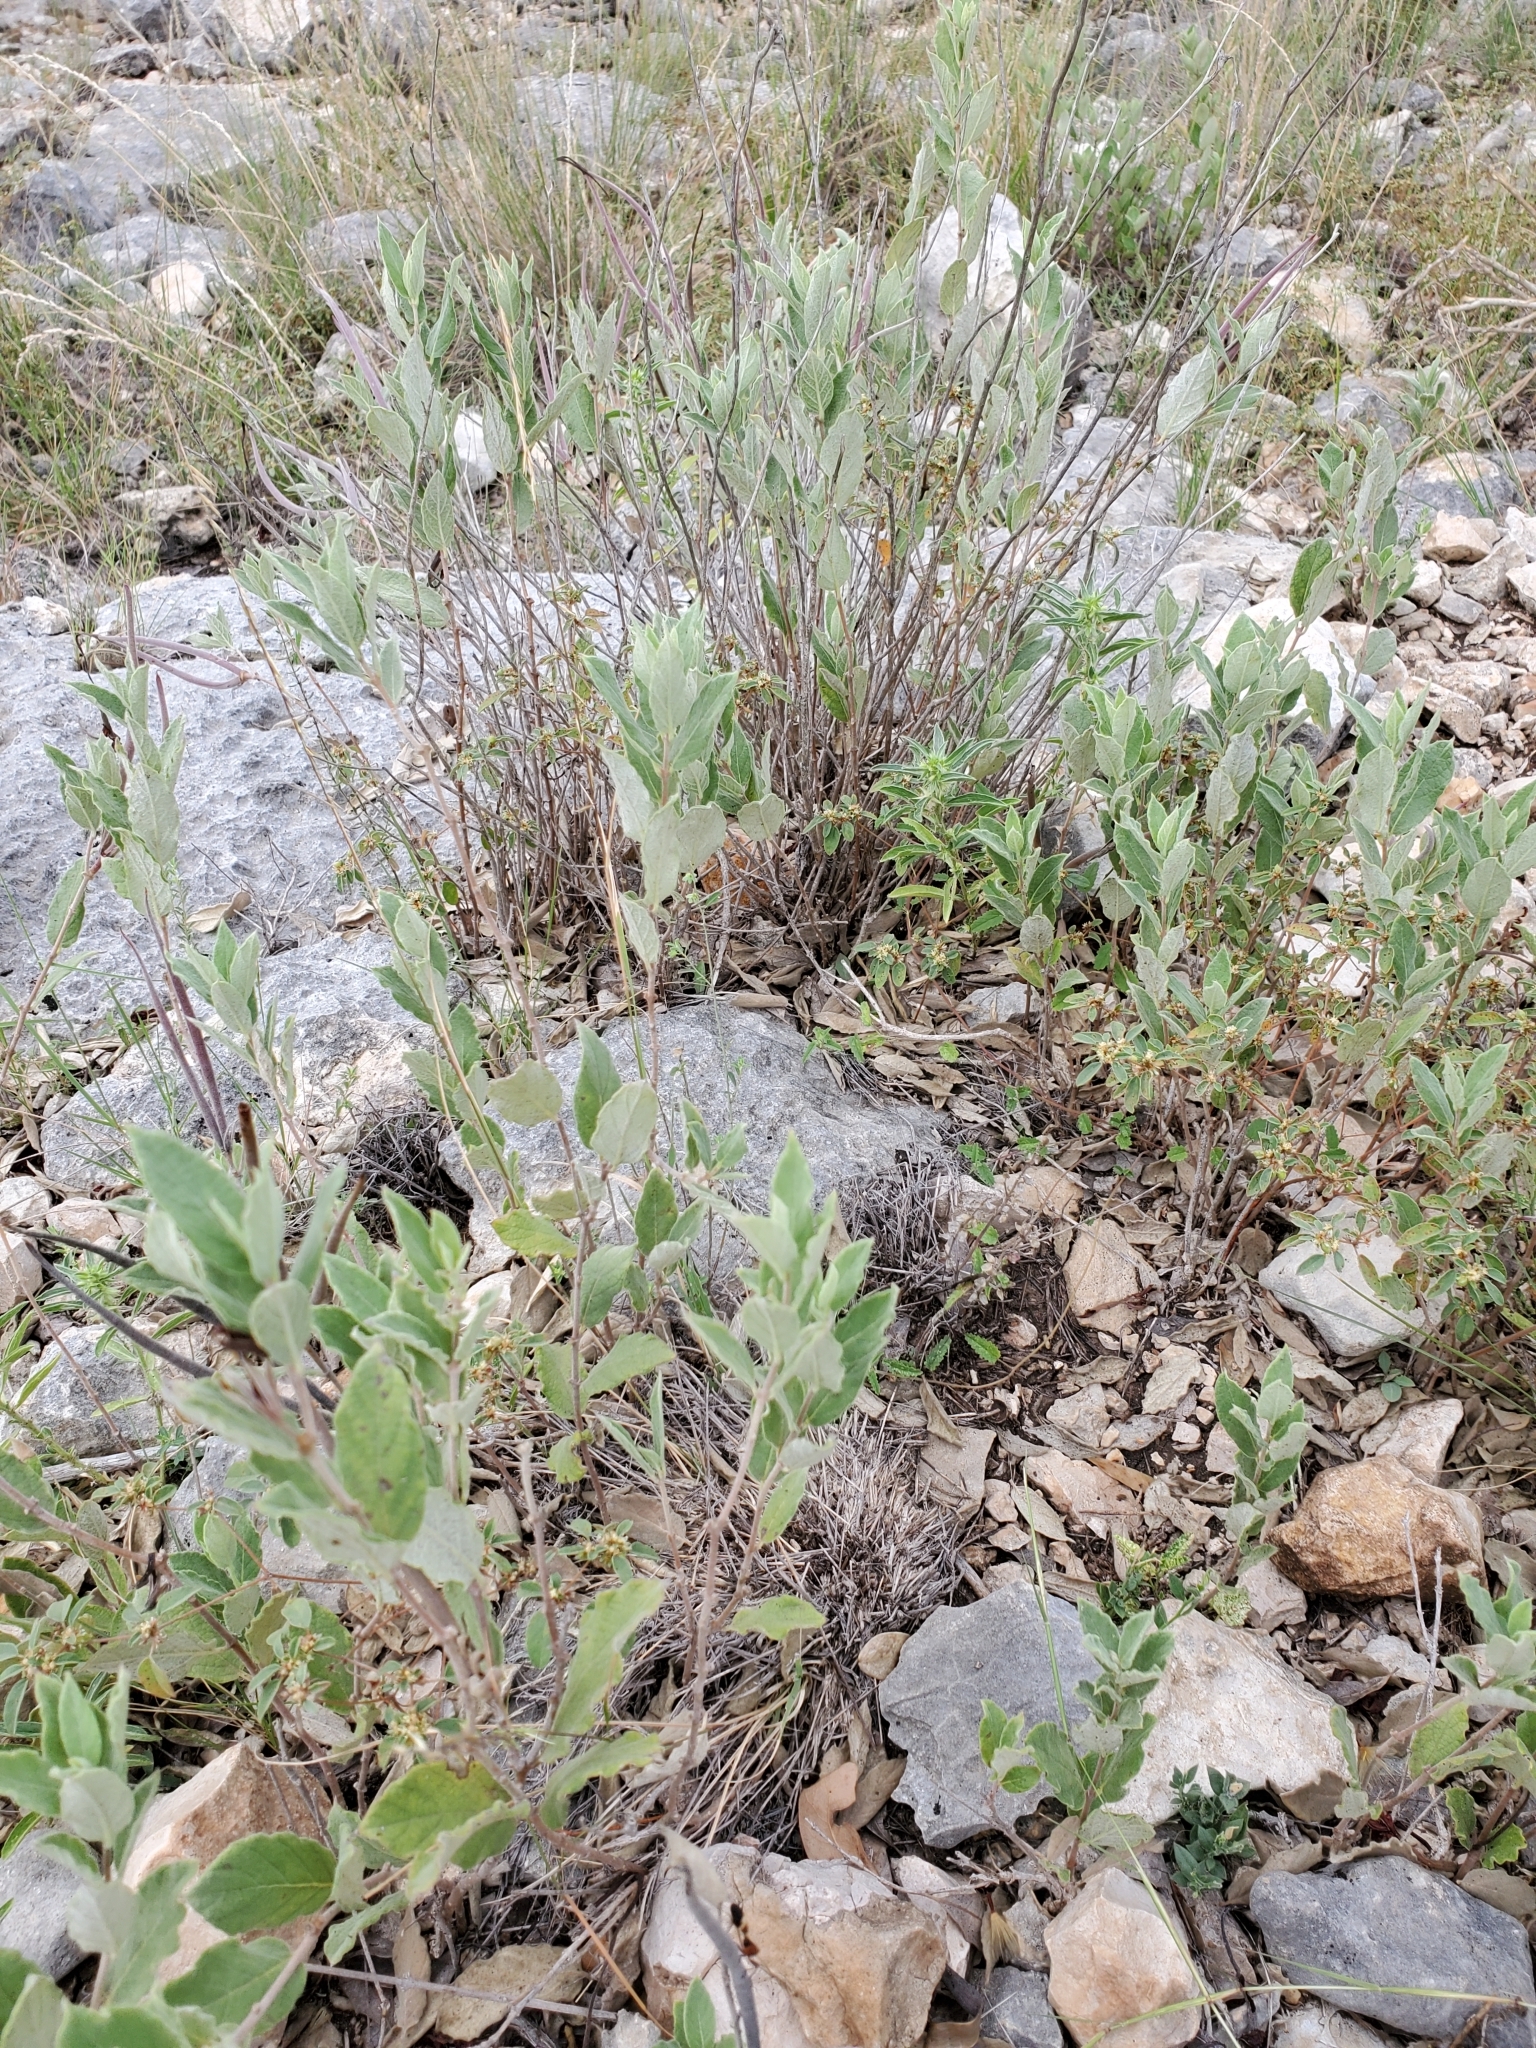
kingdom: Plantae
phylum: Tracheophyta
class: Magnoliopsida
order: Gentianales
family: Apocynaceae
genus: Mandevilla
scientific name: Mandevilla macrosiphon
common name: Plateau rocktrumpet
